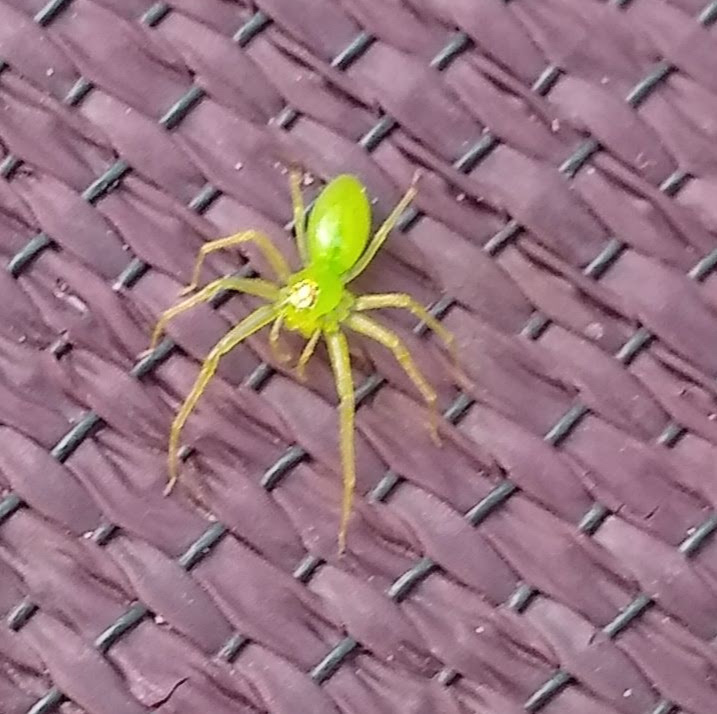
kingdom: Animalia
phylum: Arthropoda
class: Arachnida
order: Araneae
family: Salticidae
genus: Lyssomanes
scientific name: Lyssomanes viridis
